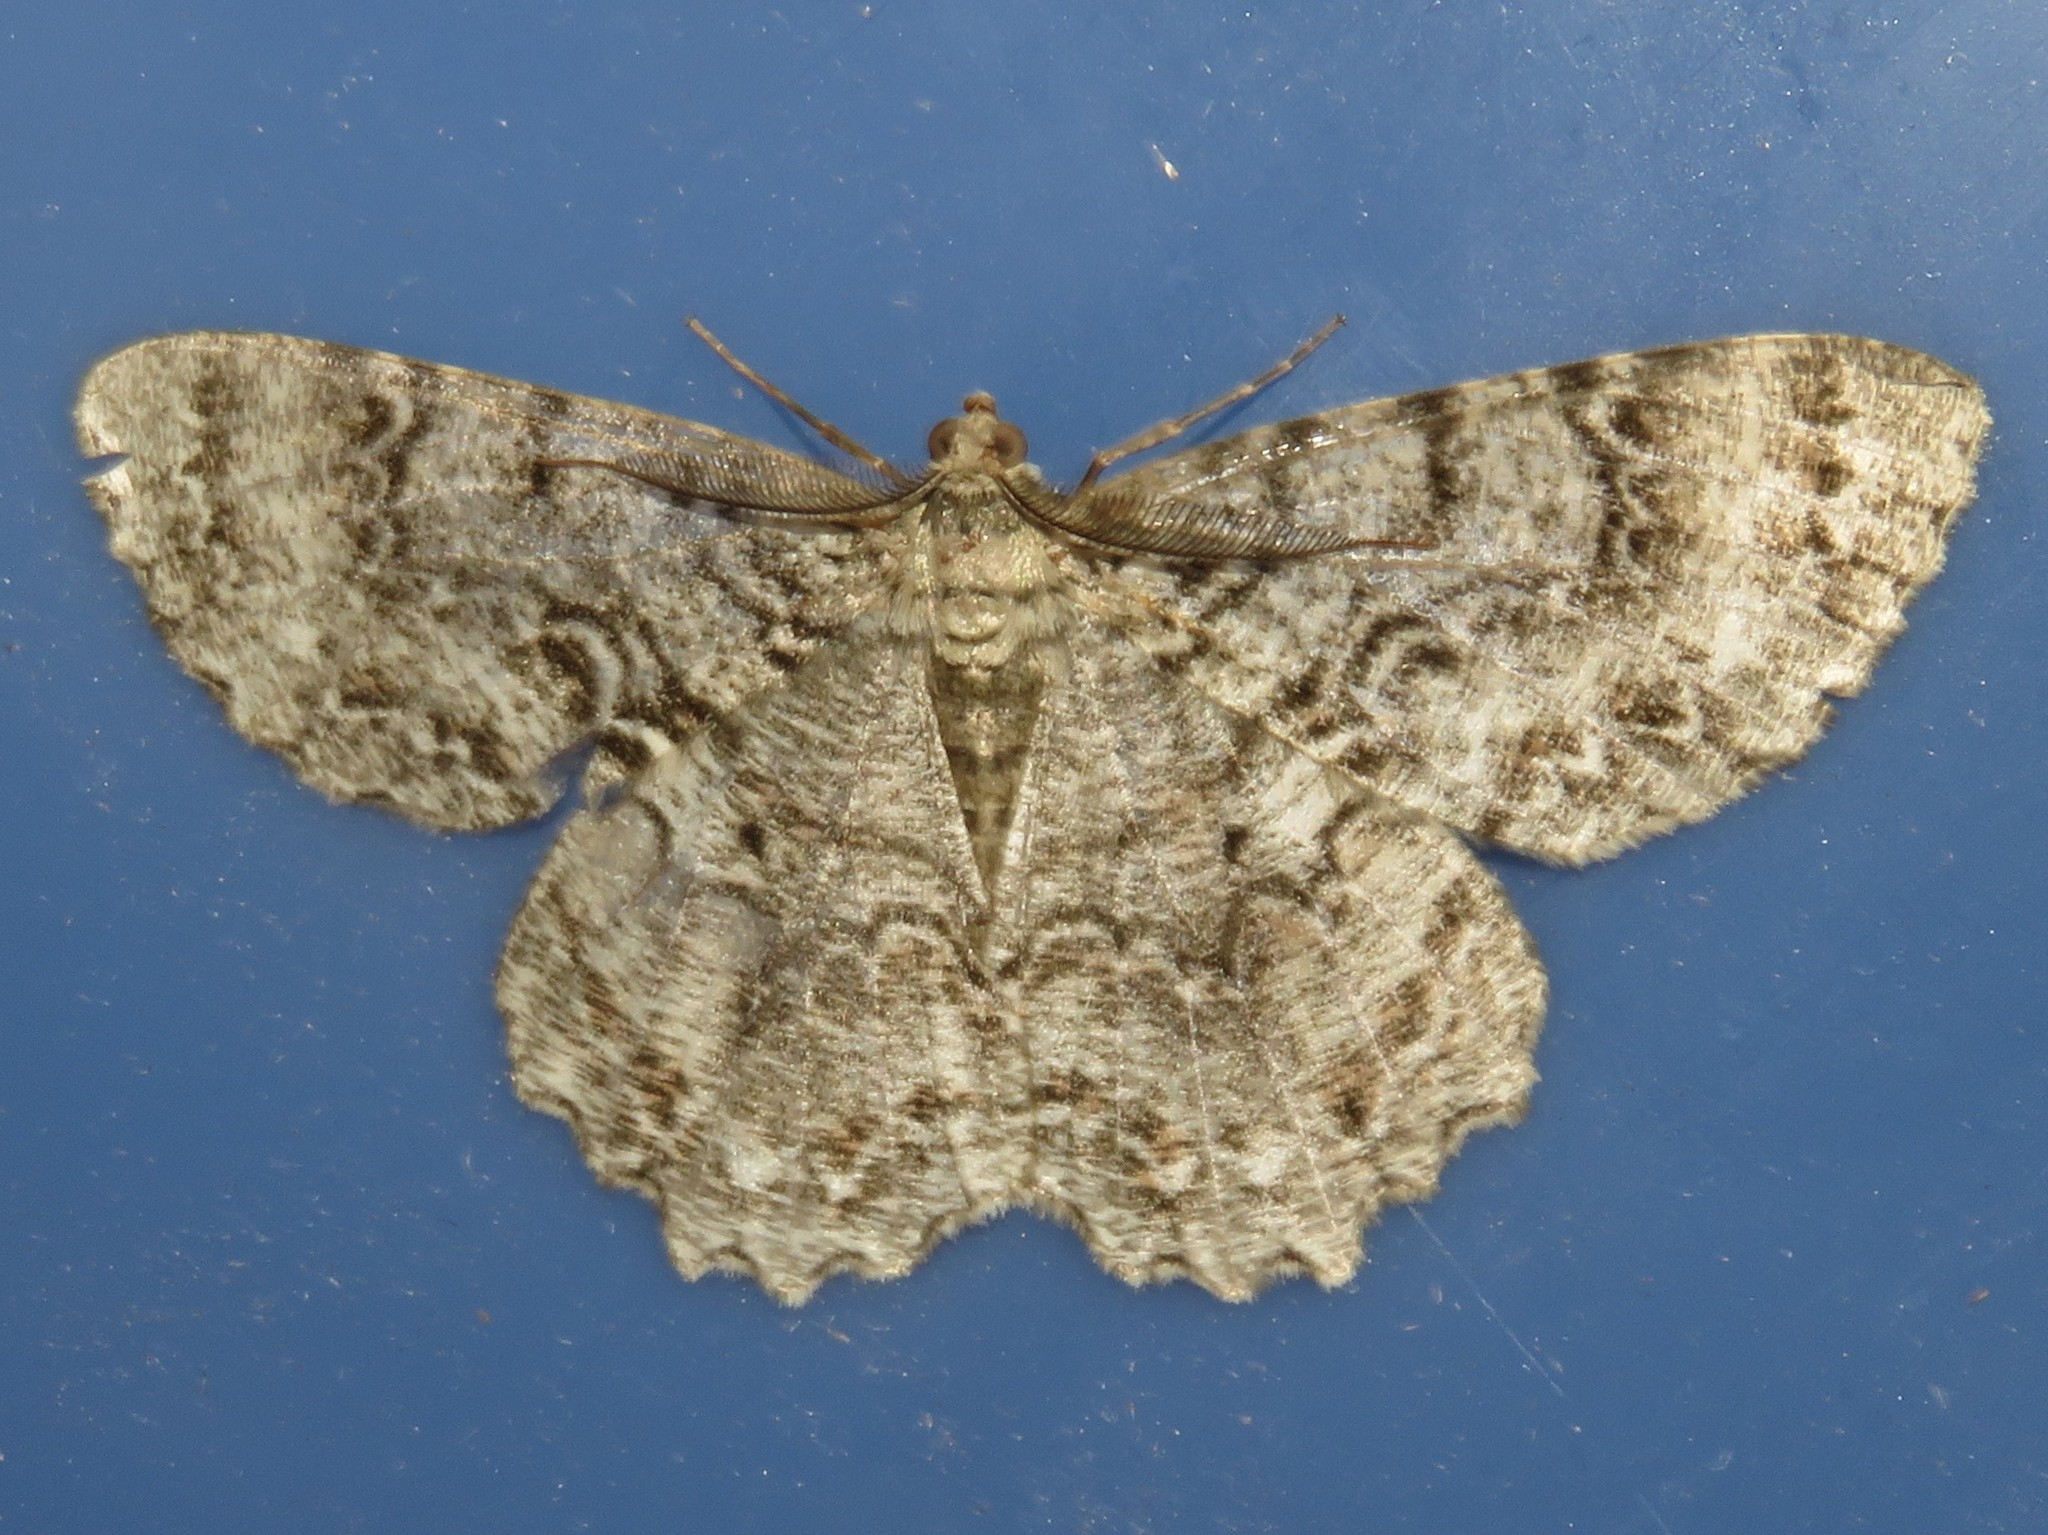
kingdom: Animalia
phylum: Arthropoda
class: Insecta
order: Lepidoptera
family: Geometridae
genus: Epimecis
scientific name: Epimecis hortaria
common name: Tulip-tree beauty
